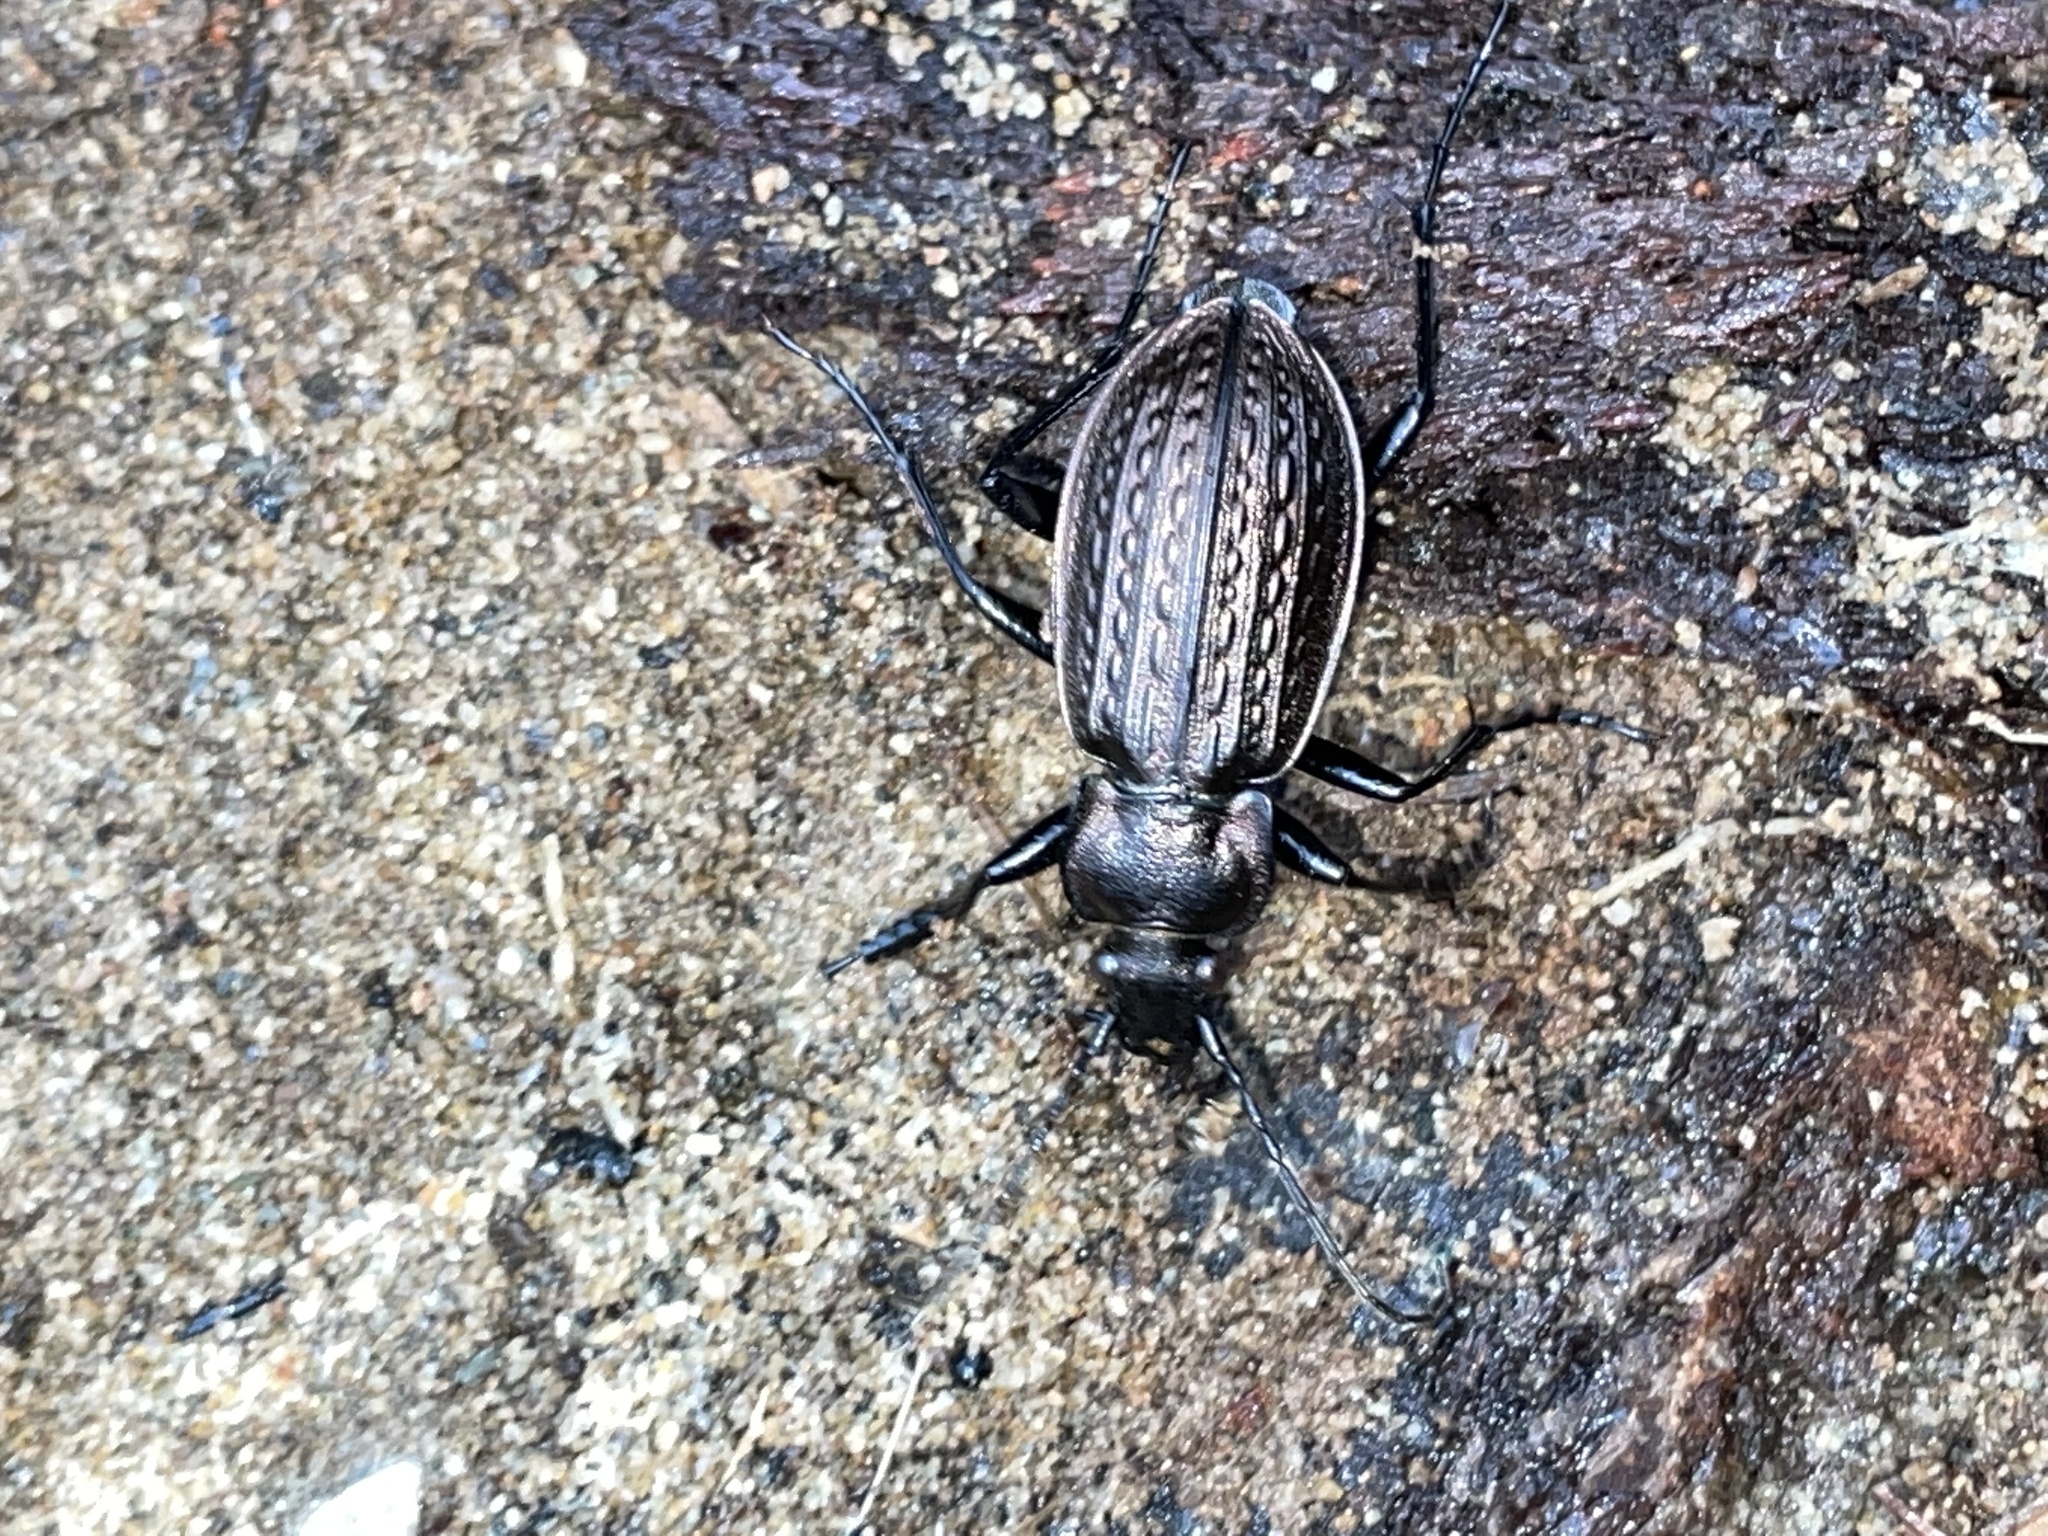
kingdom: Animalia
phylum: Arthropoda
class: Insecta
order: Coleoptera
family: Carabidae
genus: Carabus
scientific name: Carabus granulatus
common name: Granulate ground beetle
